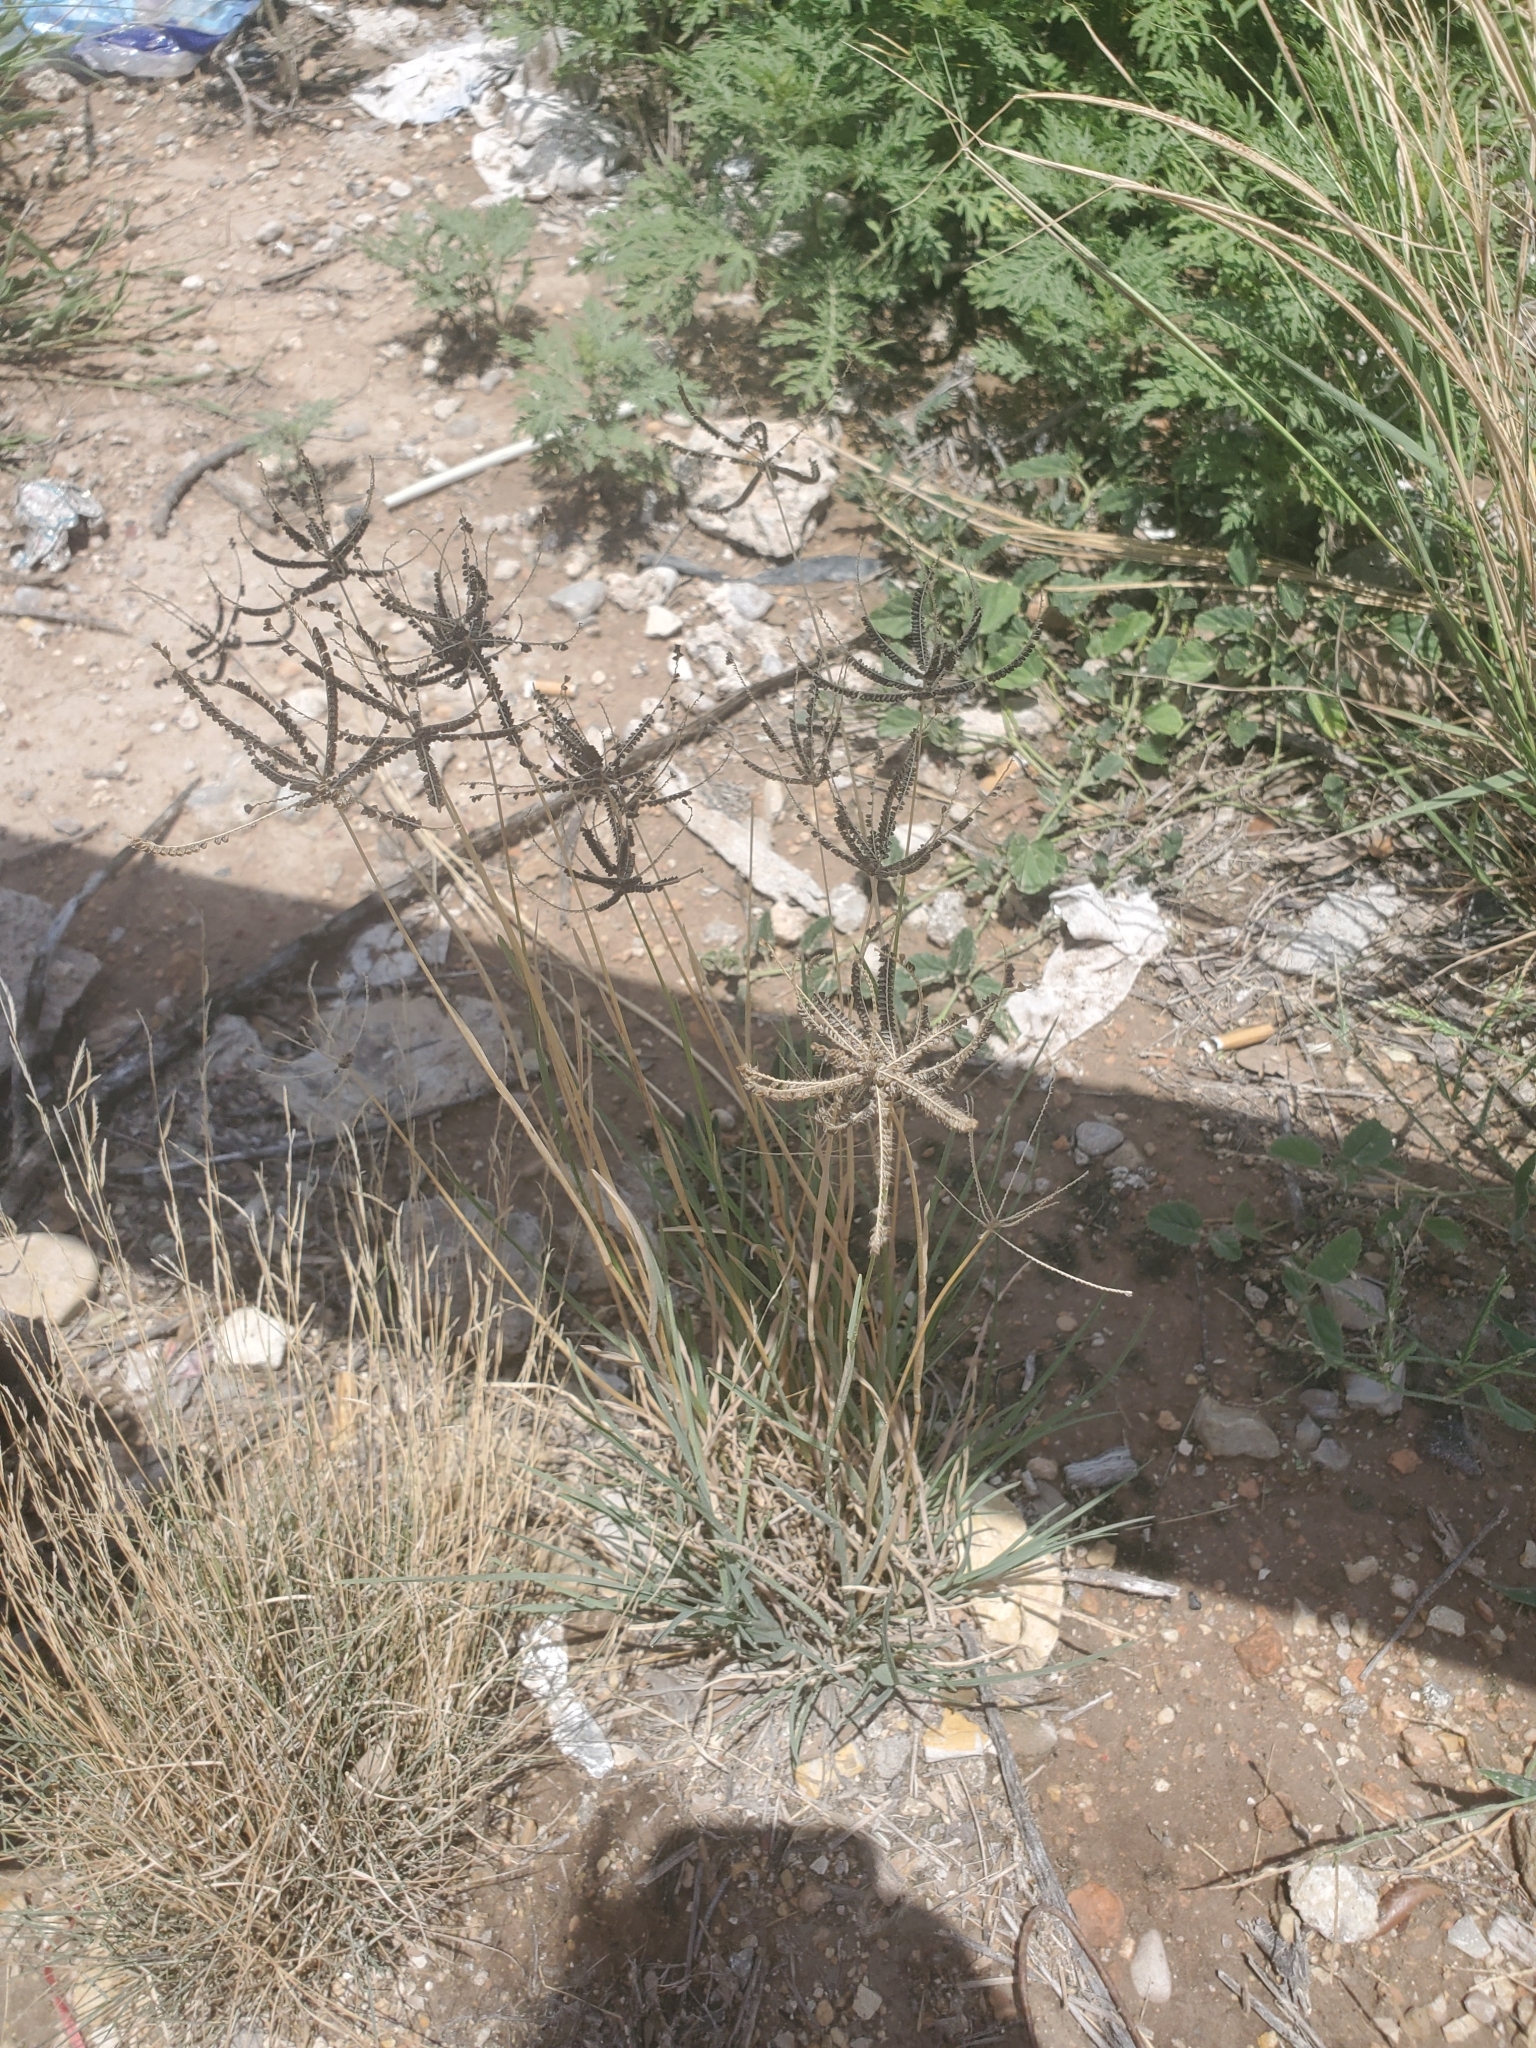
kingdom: Plantae
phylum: Tracheophyta
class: Liliopsida
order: Poales
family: Poaceae
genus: Chloris
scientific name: Chloris cucullata
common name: Hooded windmill grass
